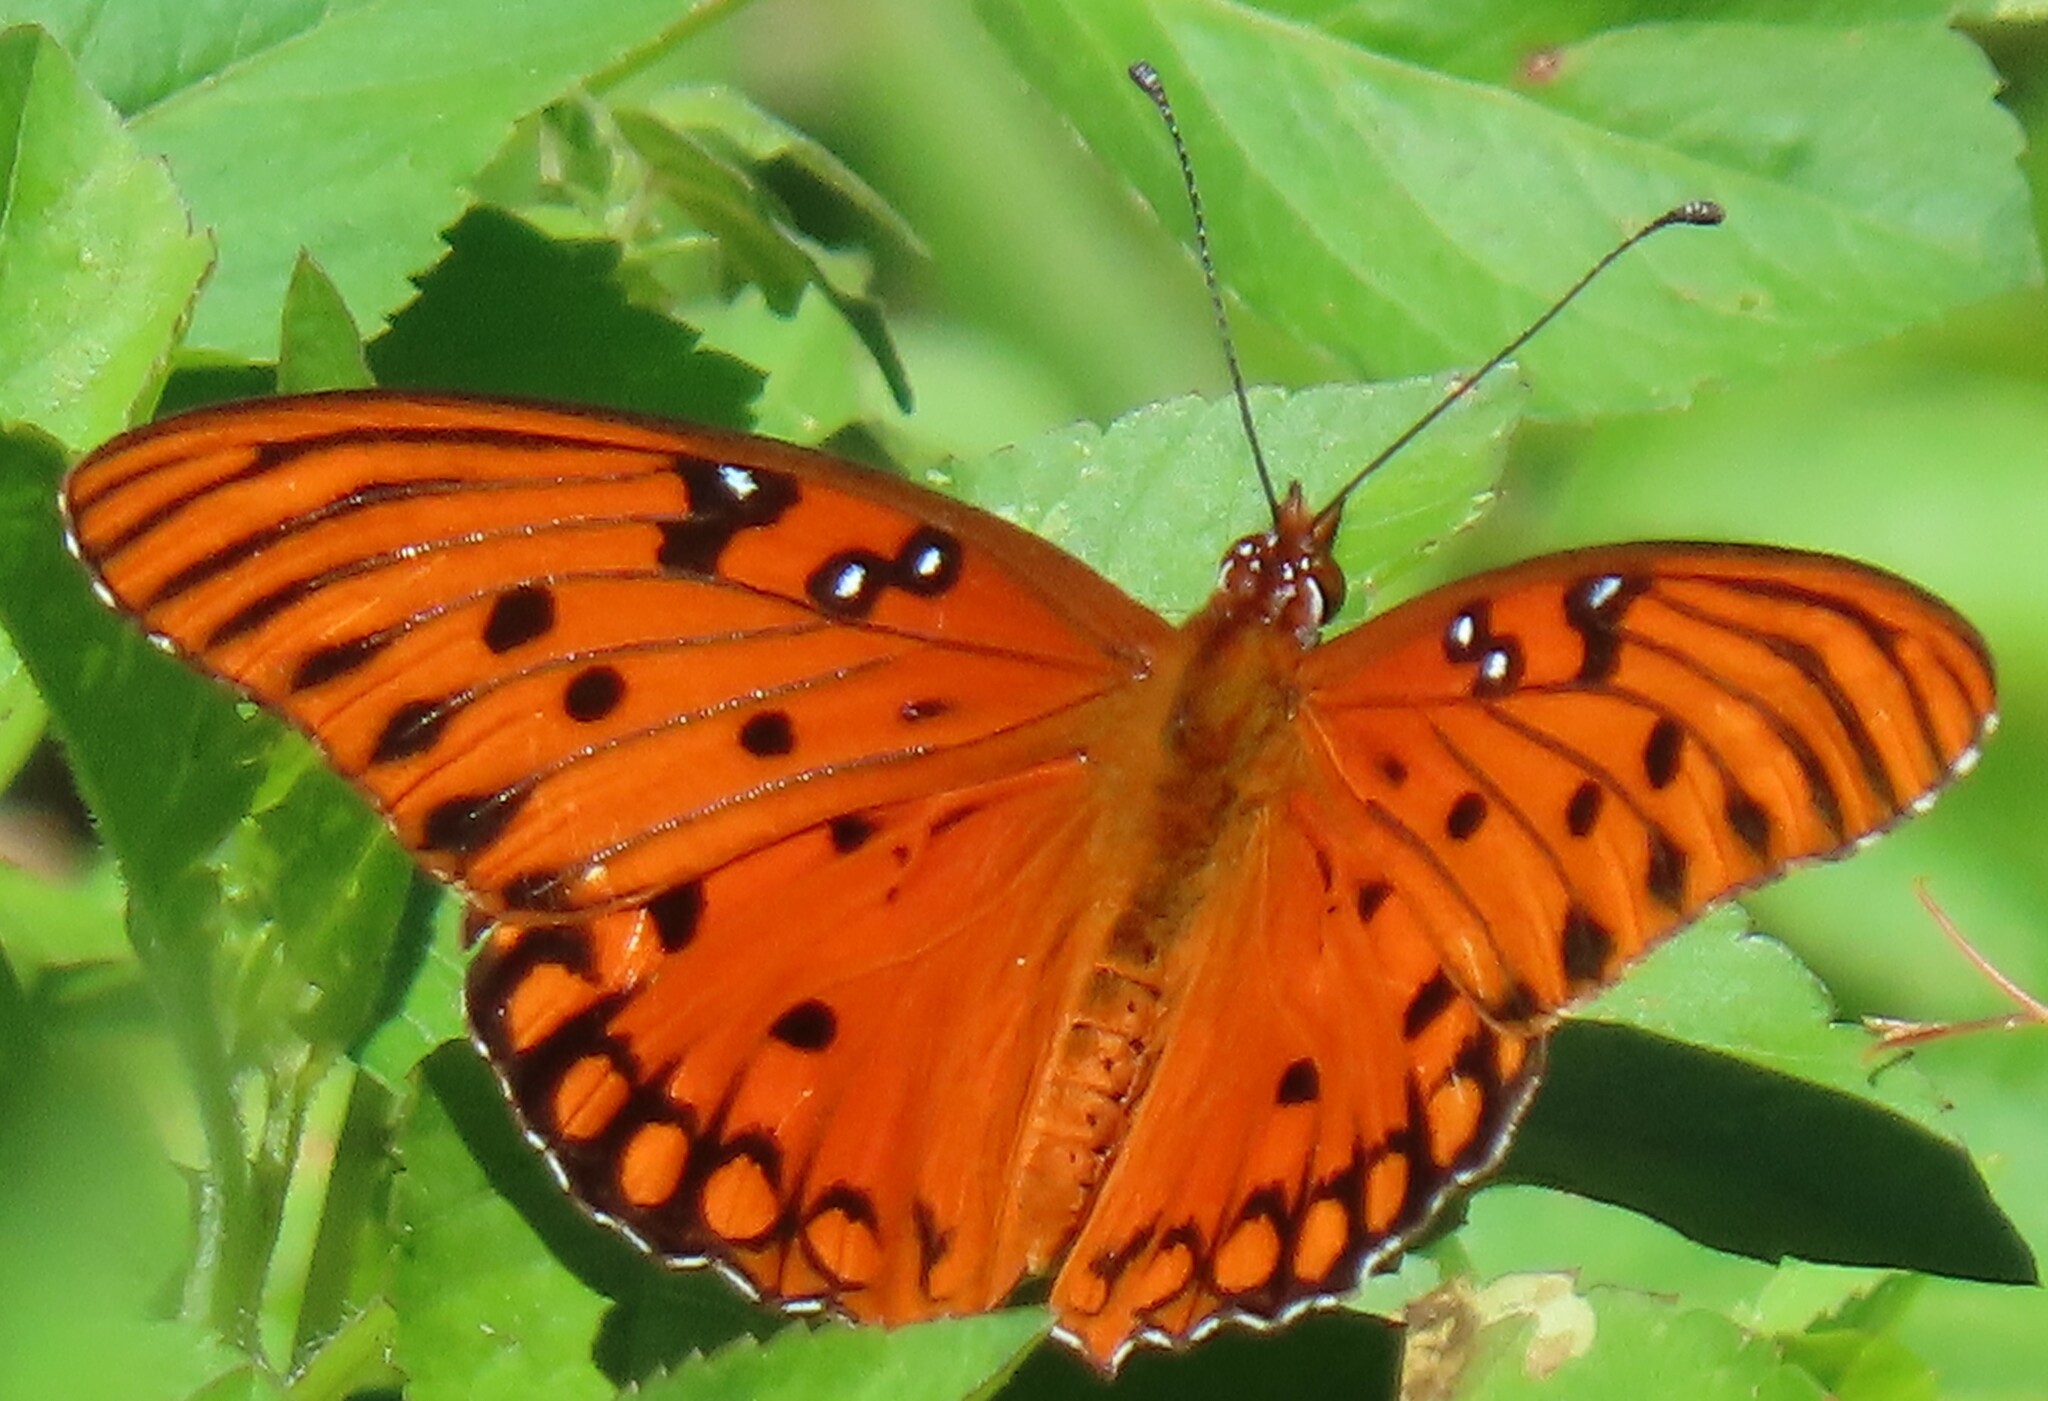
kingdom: Animalia
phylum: Arthropoda
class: Insecta
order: Lepidoptera
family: Nymphalidae
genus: Dione
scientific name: Dione vanillae
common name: Gulf fritillary
